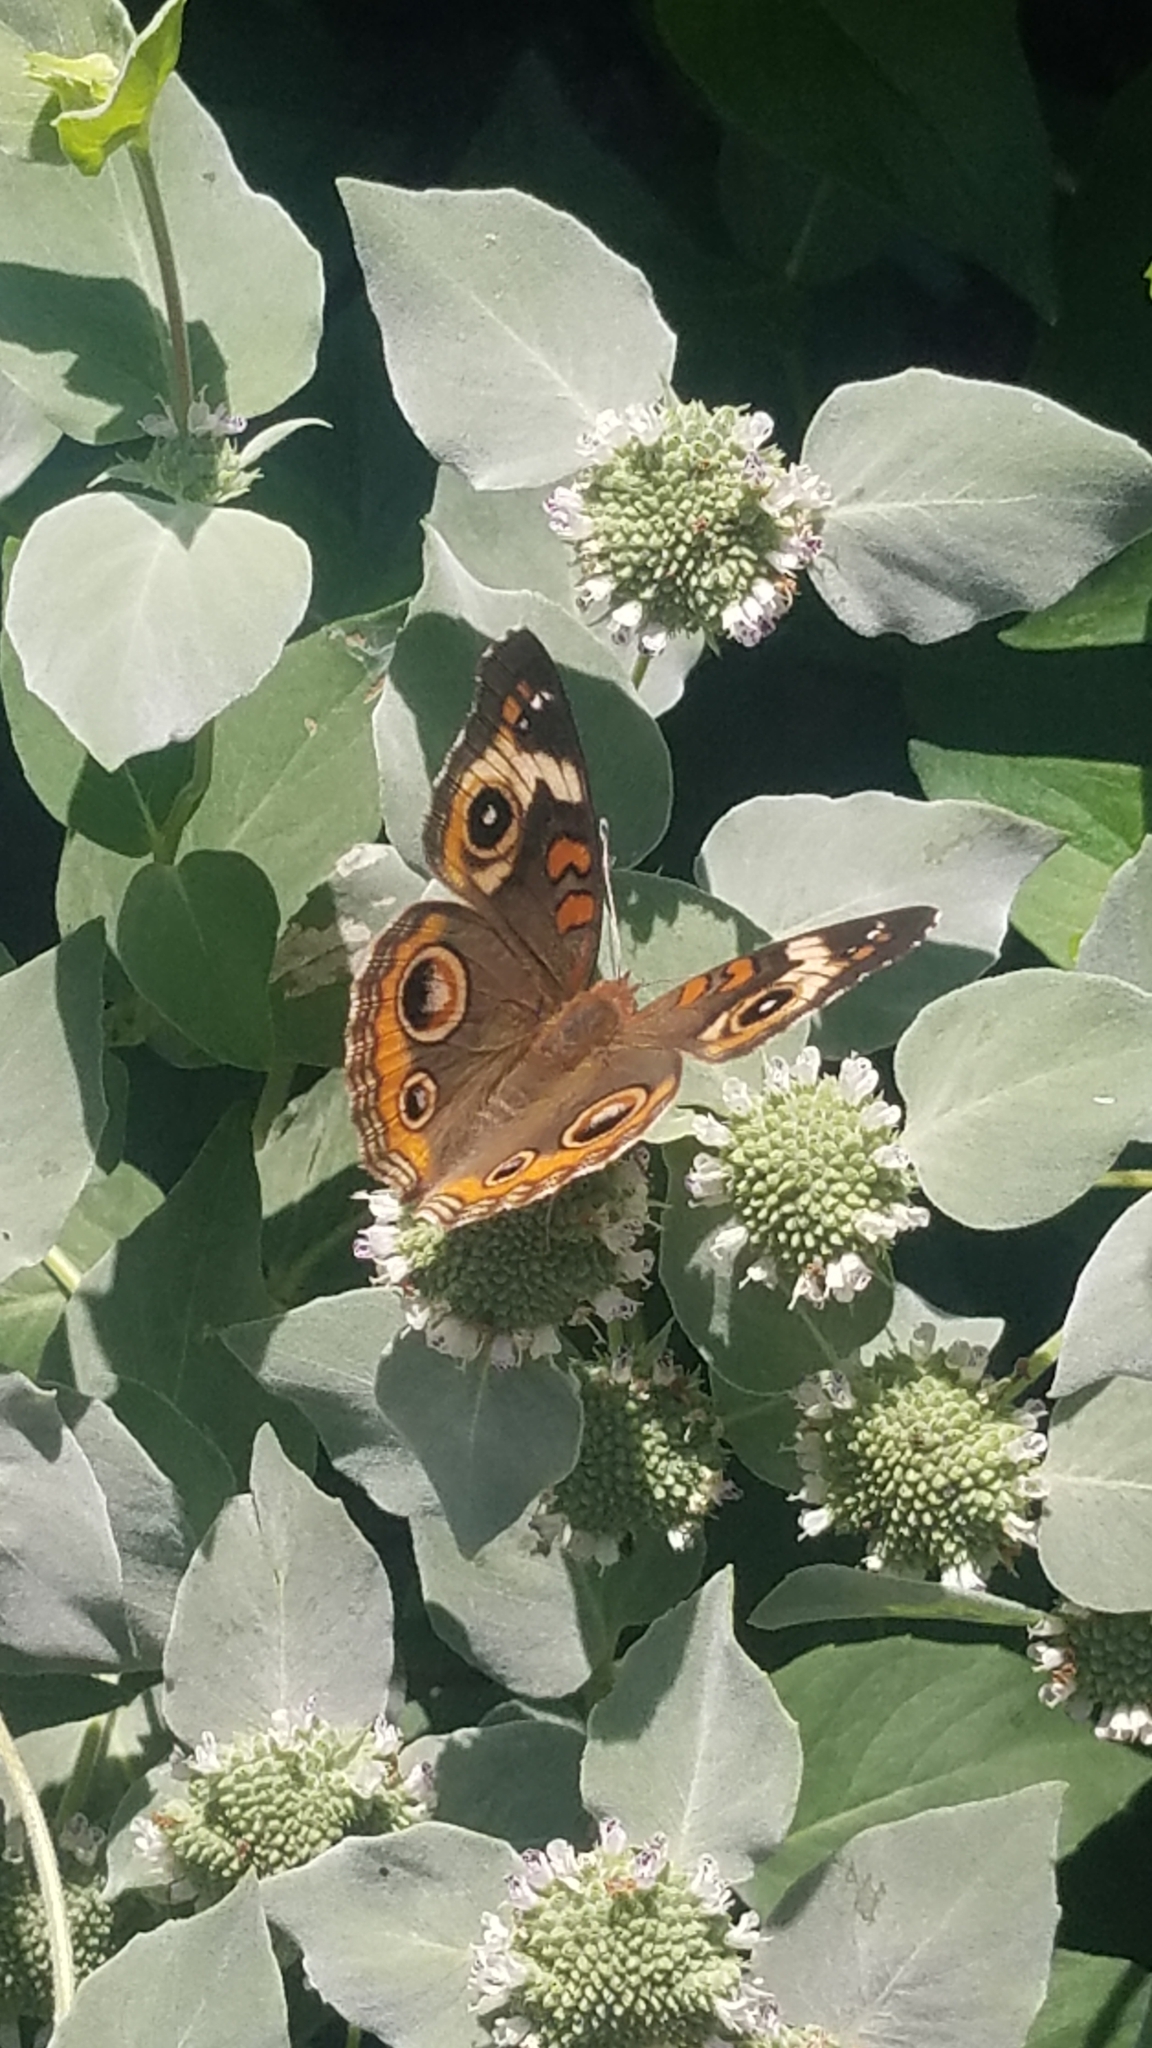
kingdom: Animalia
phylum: Arthropoda
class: Insecta
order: Lepidoptera
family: Nymphalidae
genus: Junonia
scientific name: Junonia coenia
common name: Common buckeye
